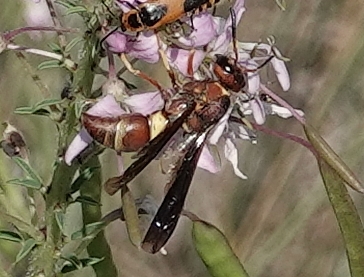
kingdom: Animalia
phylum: Arthropoda
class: Insecta
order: Hymenoptera
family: Eumenidae
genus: Euodynerus
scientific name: Euodynerus crypticus
